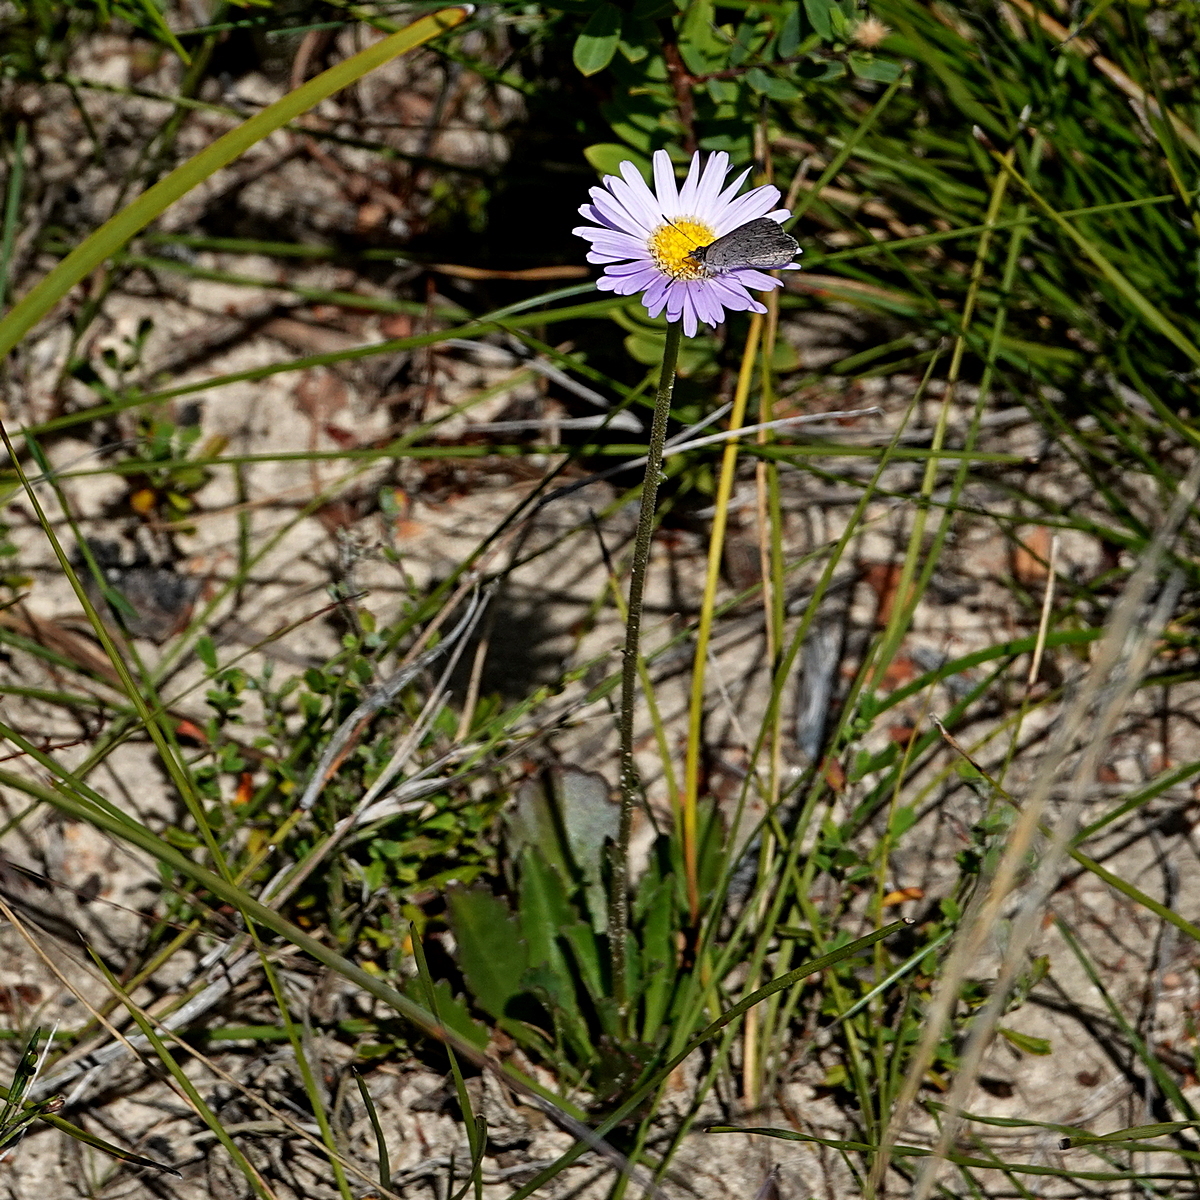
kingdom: Plantae
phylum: Tracheophyta
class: Magnoliopsida
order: Asterales
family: Asteraceae
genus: Brachyscome
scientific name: Brachyscome spathulata
